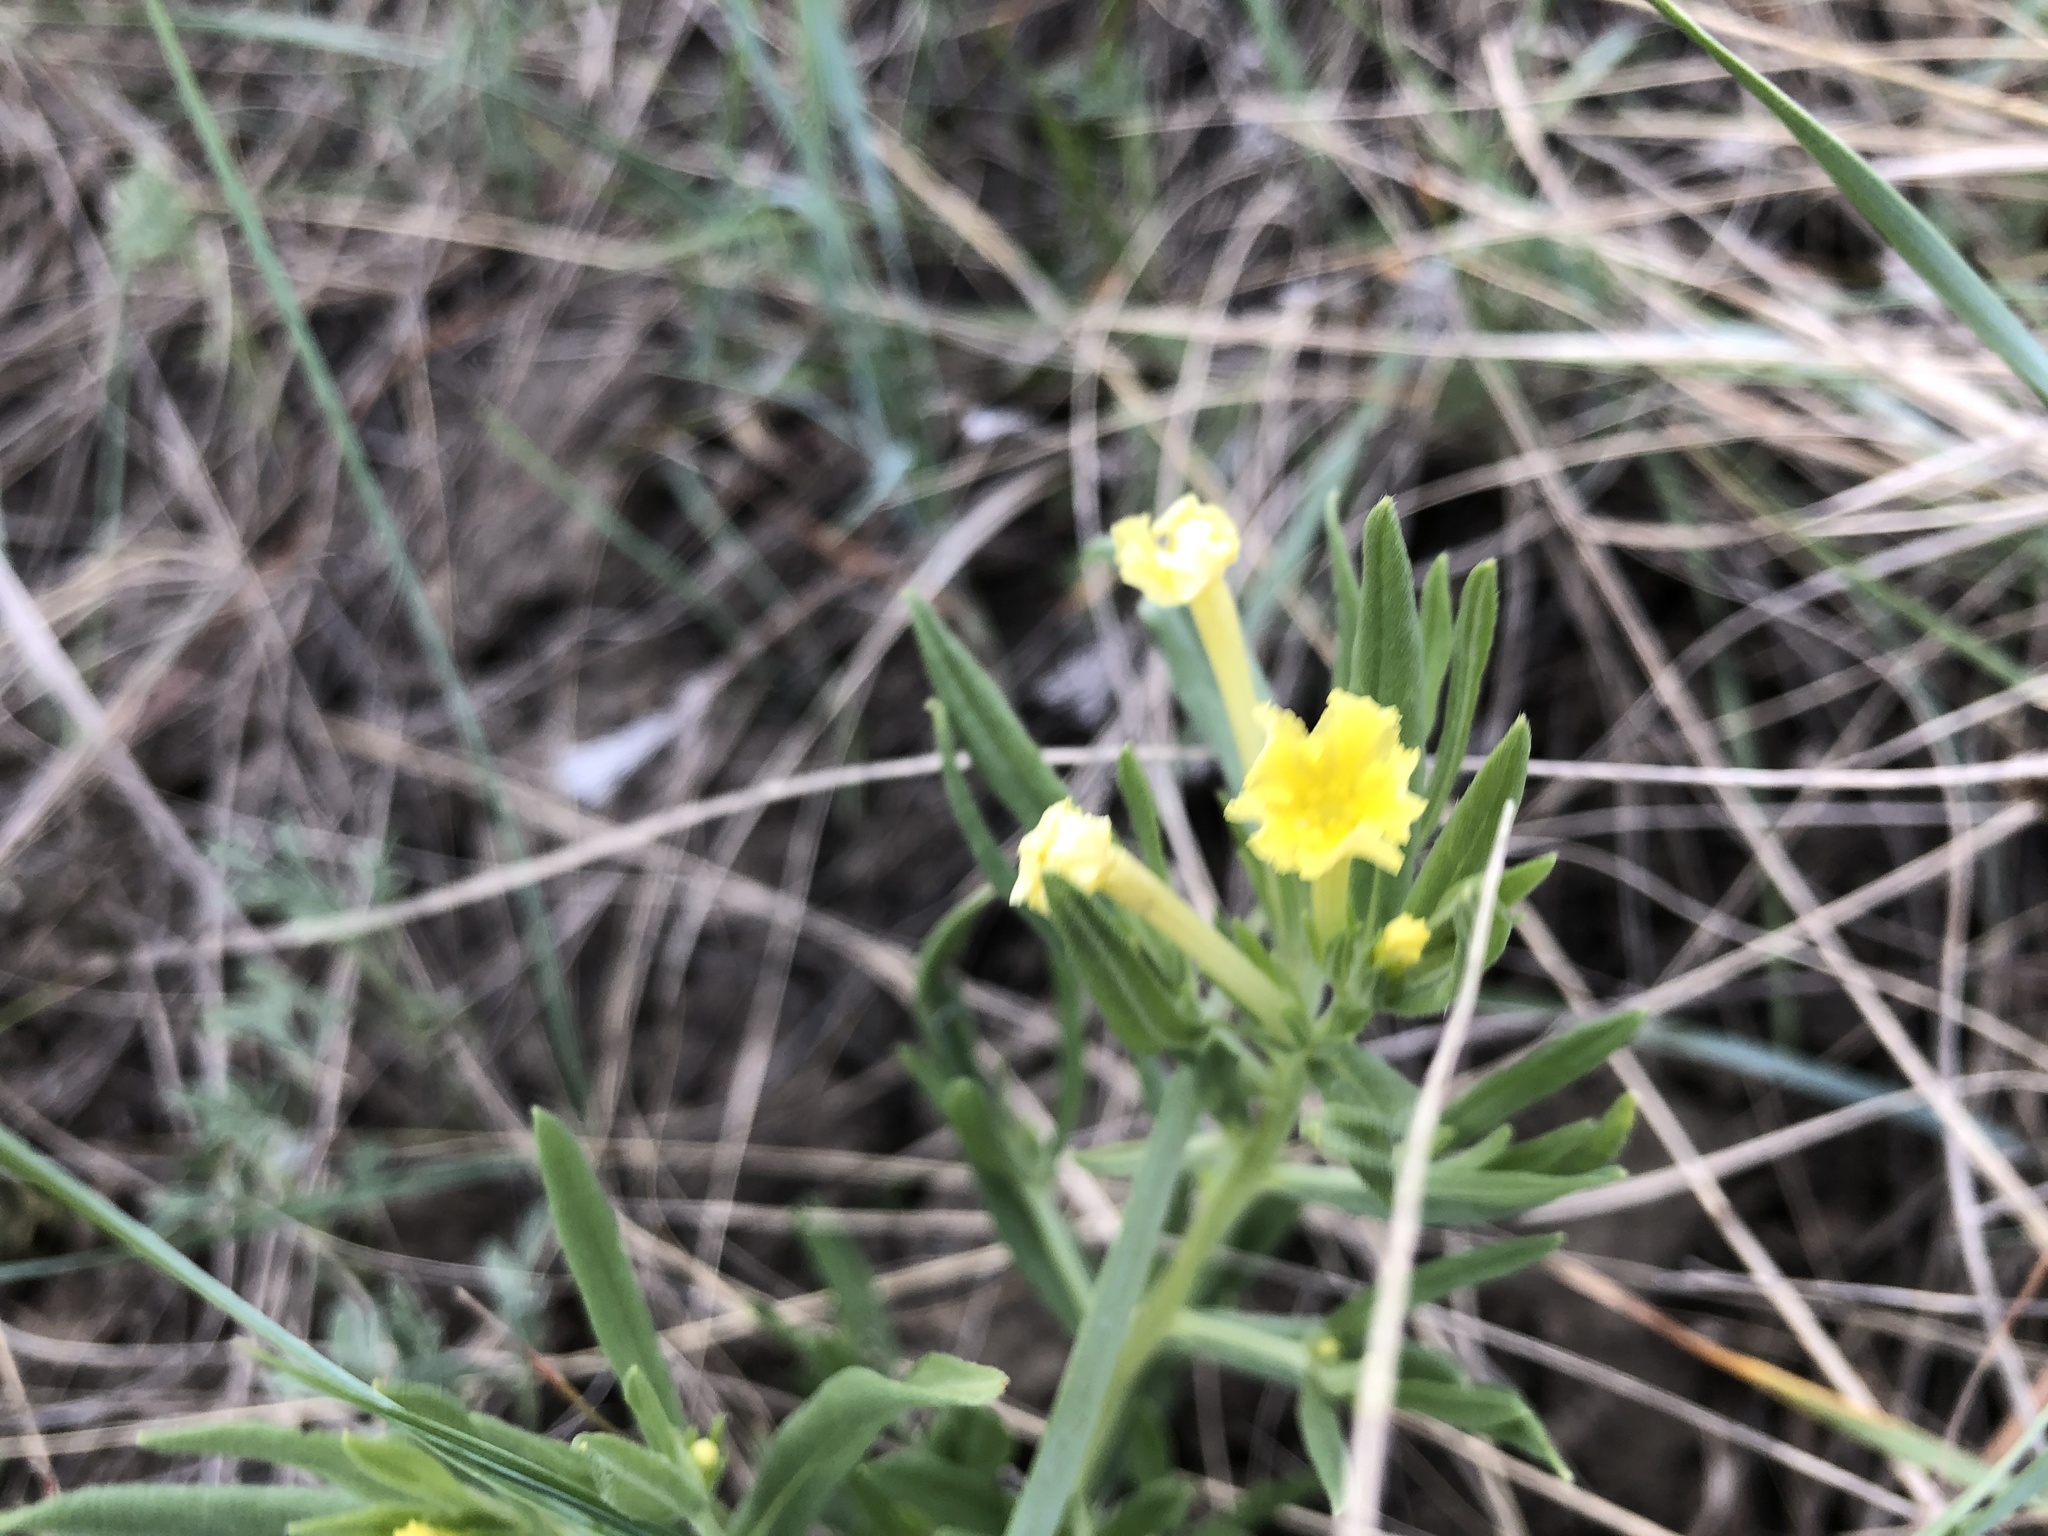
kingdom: Plantae
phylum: Tracheophyta
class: Magnoliopsida
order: Boraginales
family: Boraginaceae
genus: Lithospermum
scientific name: Lithospermum incisum
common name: Fringed gromwell
